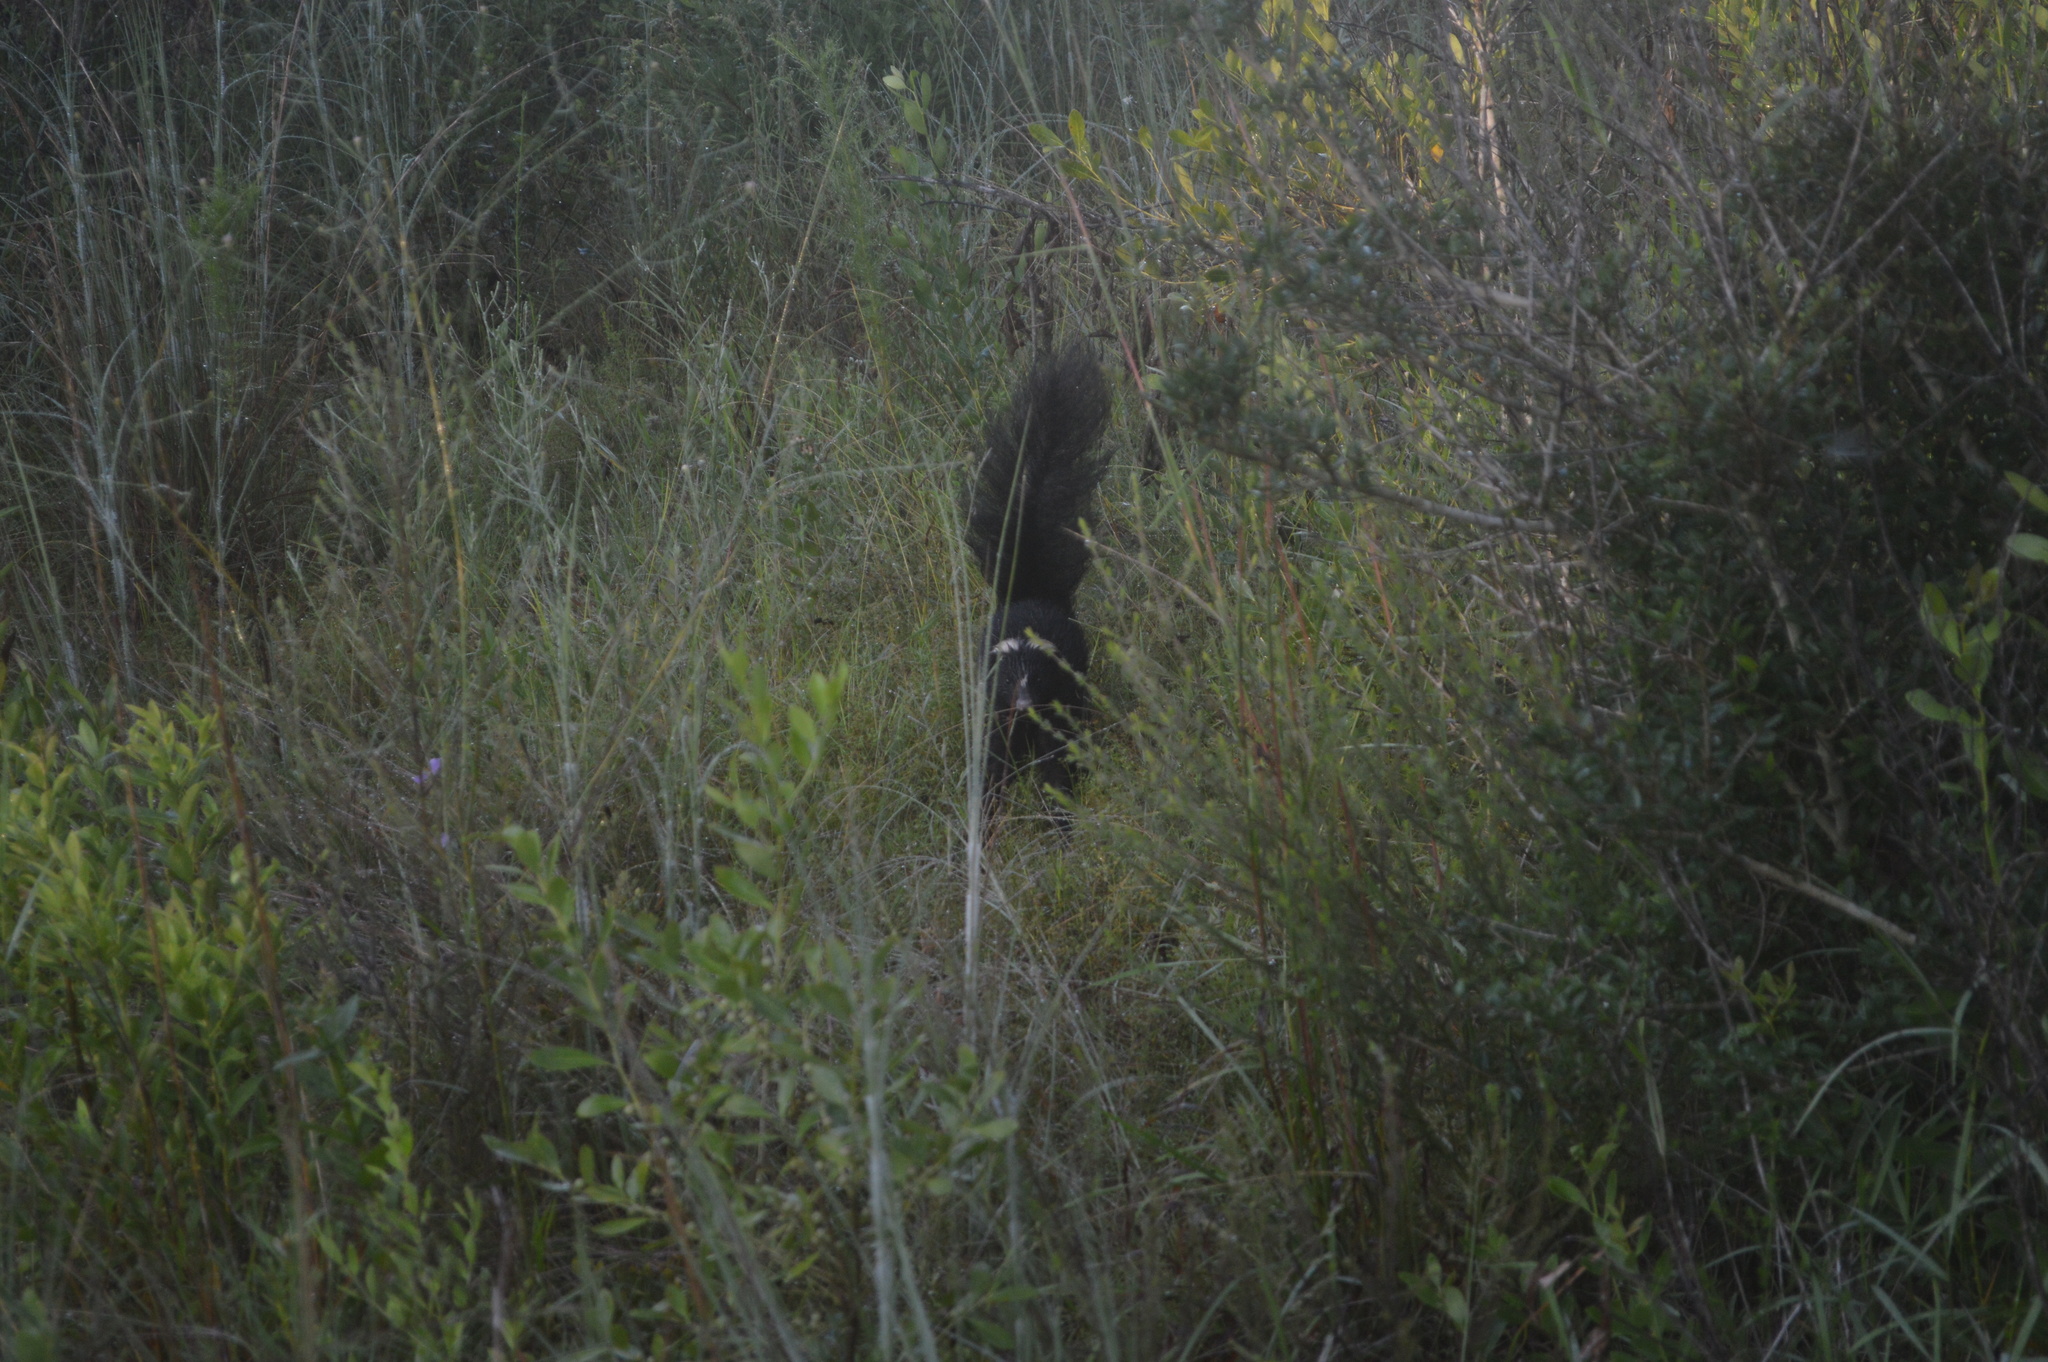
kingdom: Animalia
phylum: Chordata
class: Mammalia
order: Carnivora
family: Mephitidae
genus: Mephitis
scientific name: Mephitis mephitis
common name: Striped skunk
